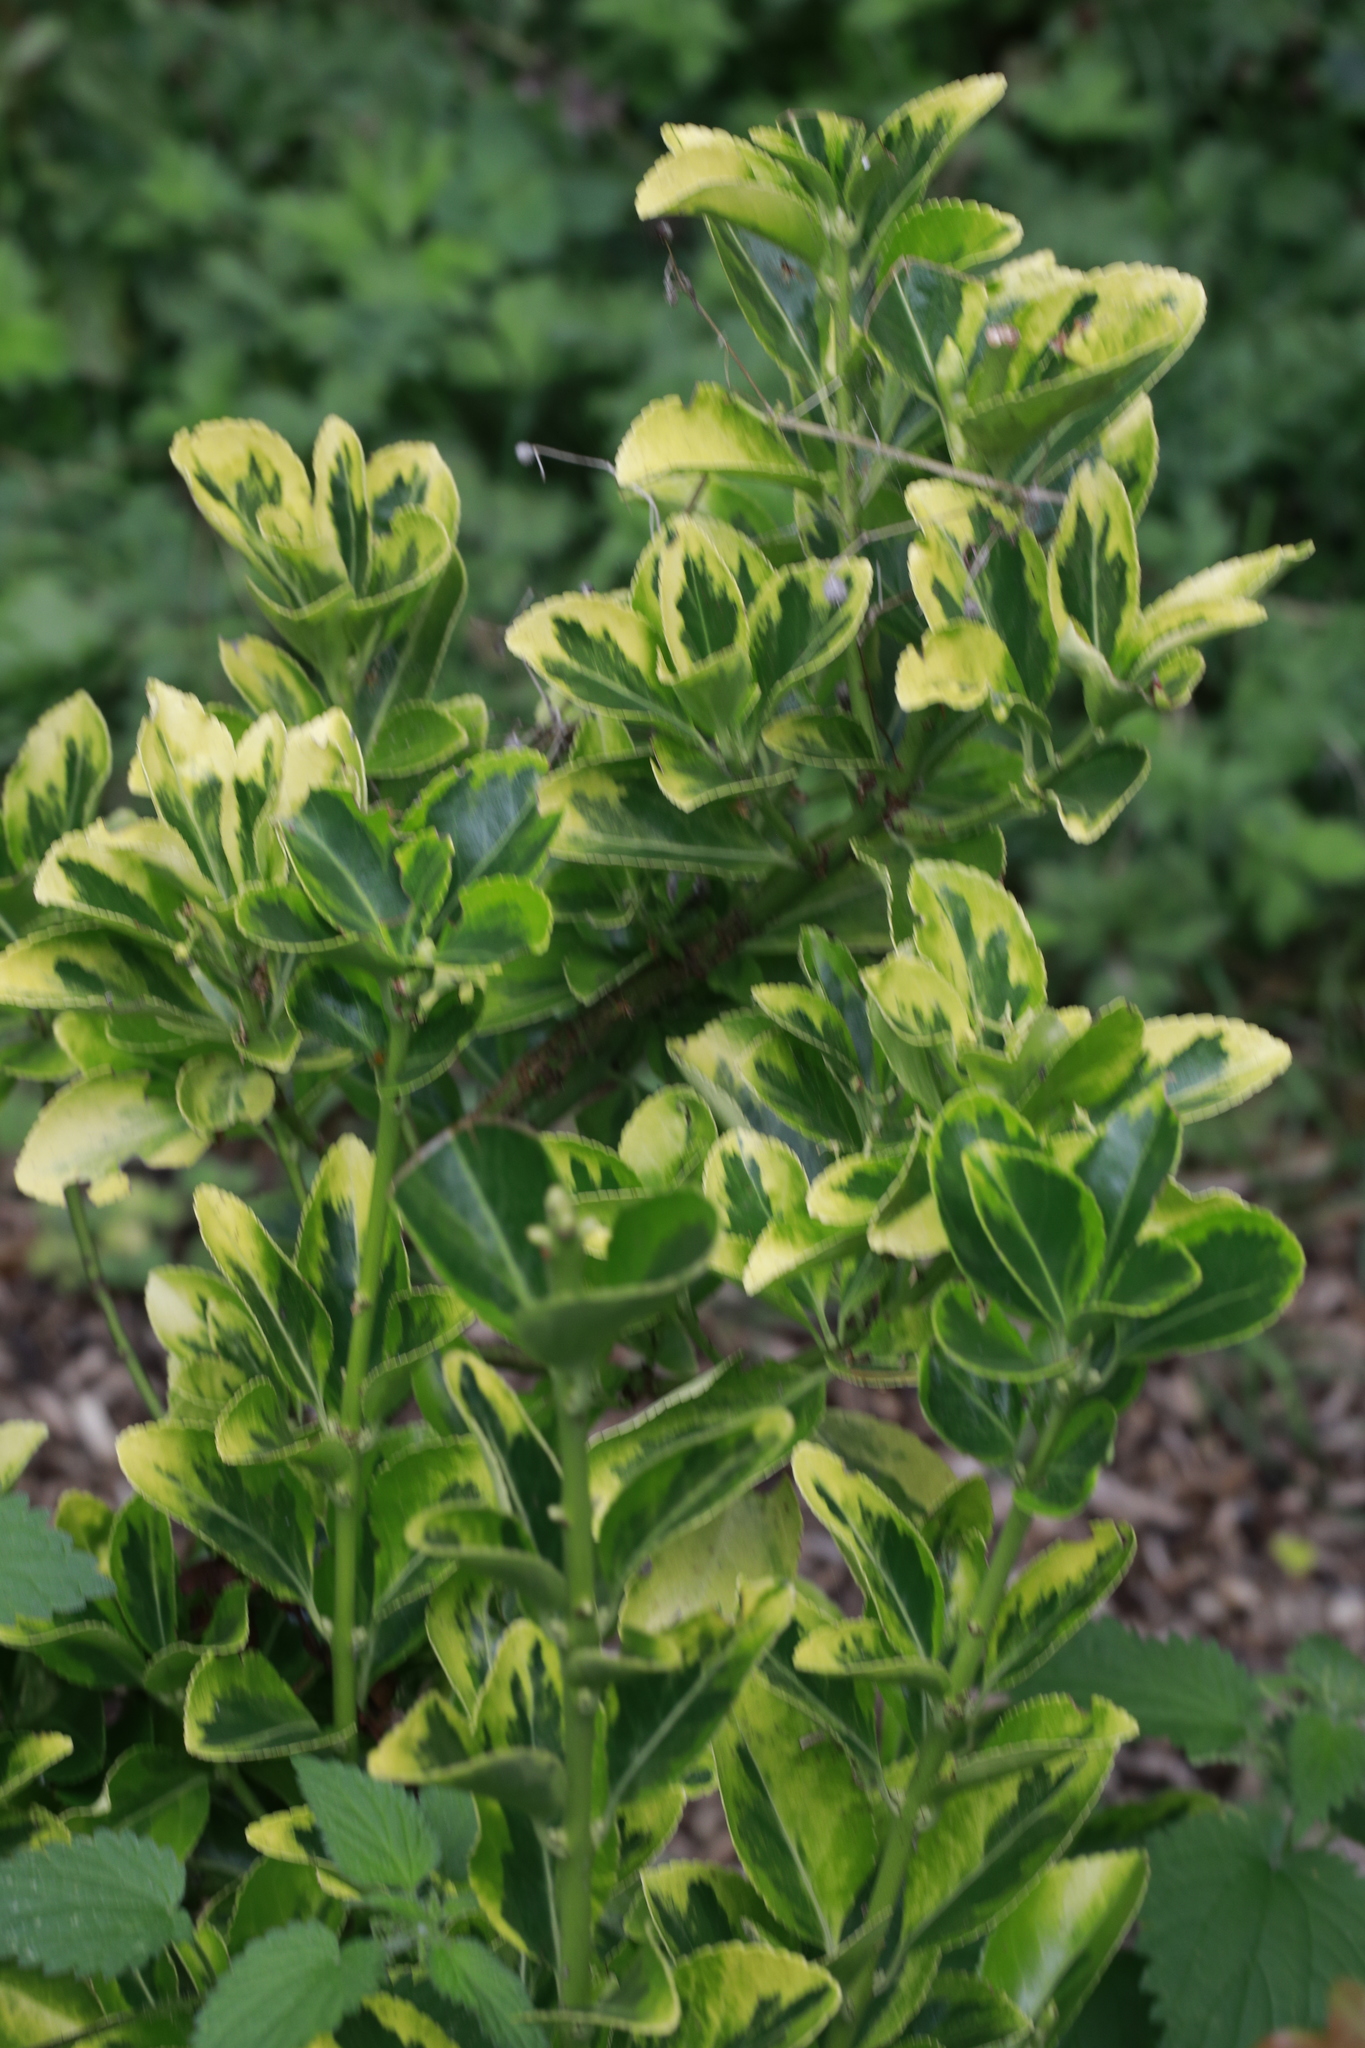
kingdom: Plantae
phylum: Tracheophyta
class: Magnoliopsida
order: Celastrales
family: Celastraceae
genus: Euonymus
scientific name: Euonymus japonicus
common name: Japanese spindletree
